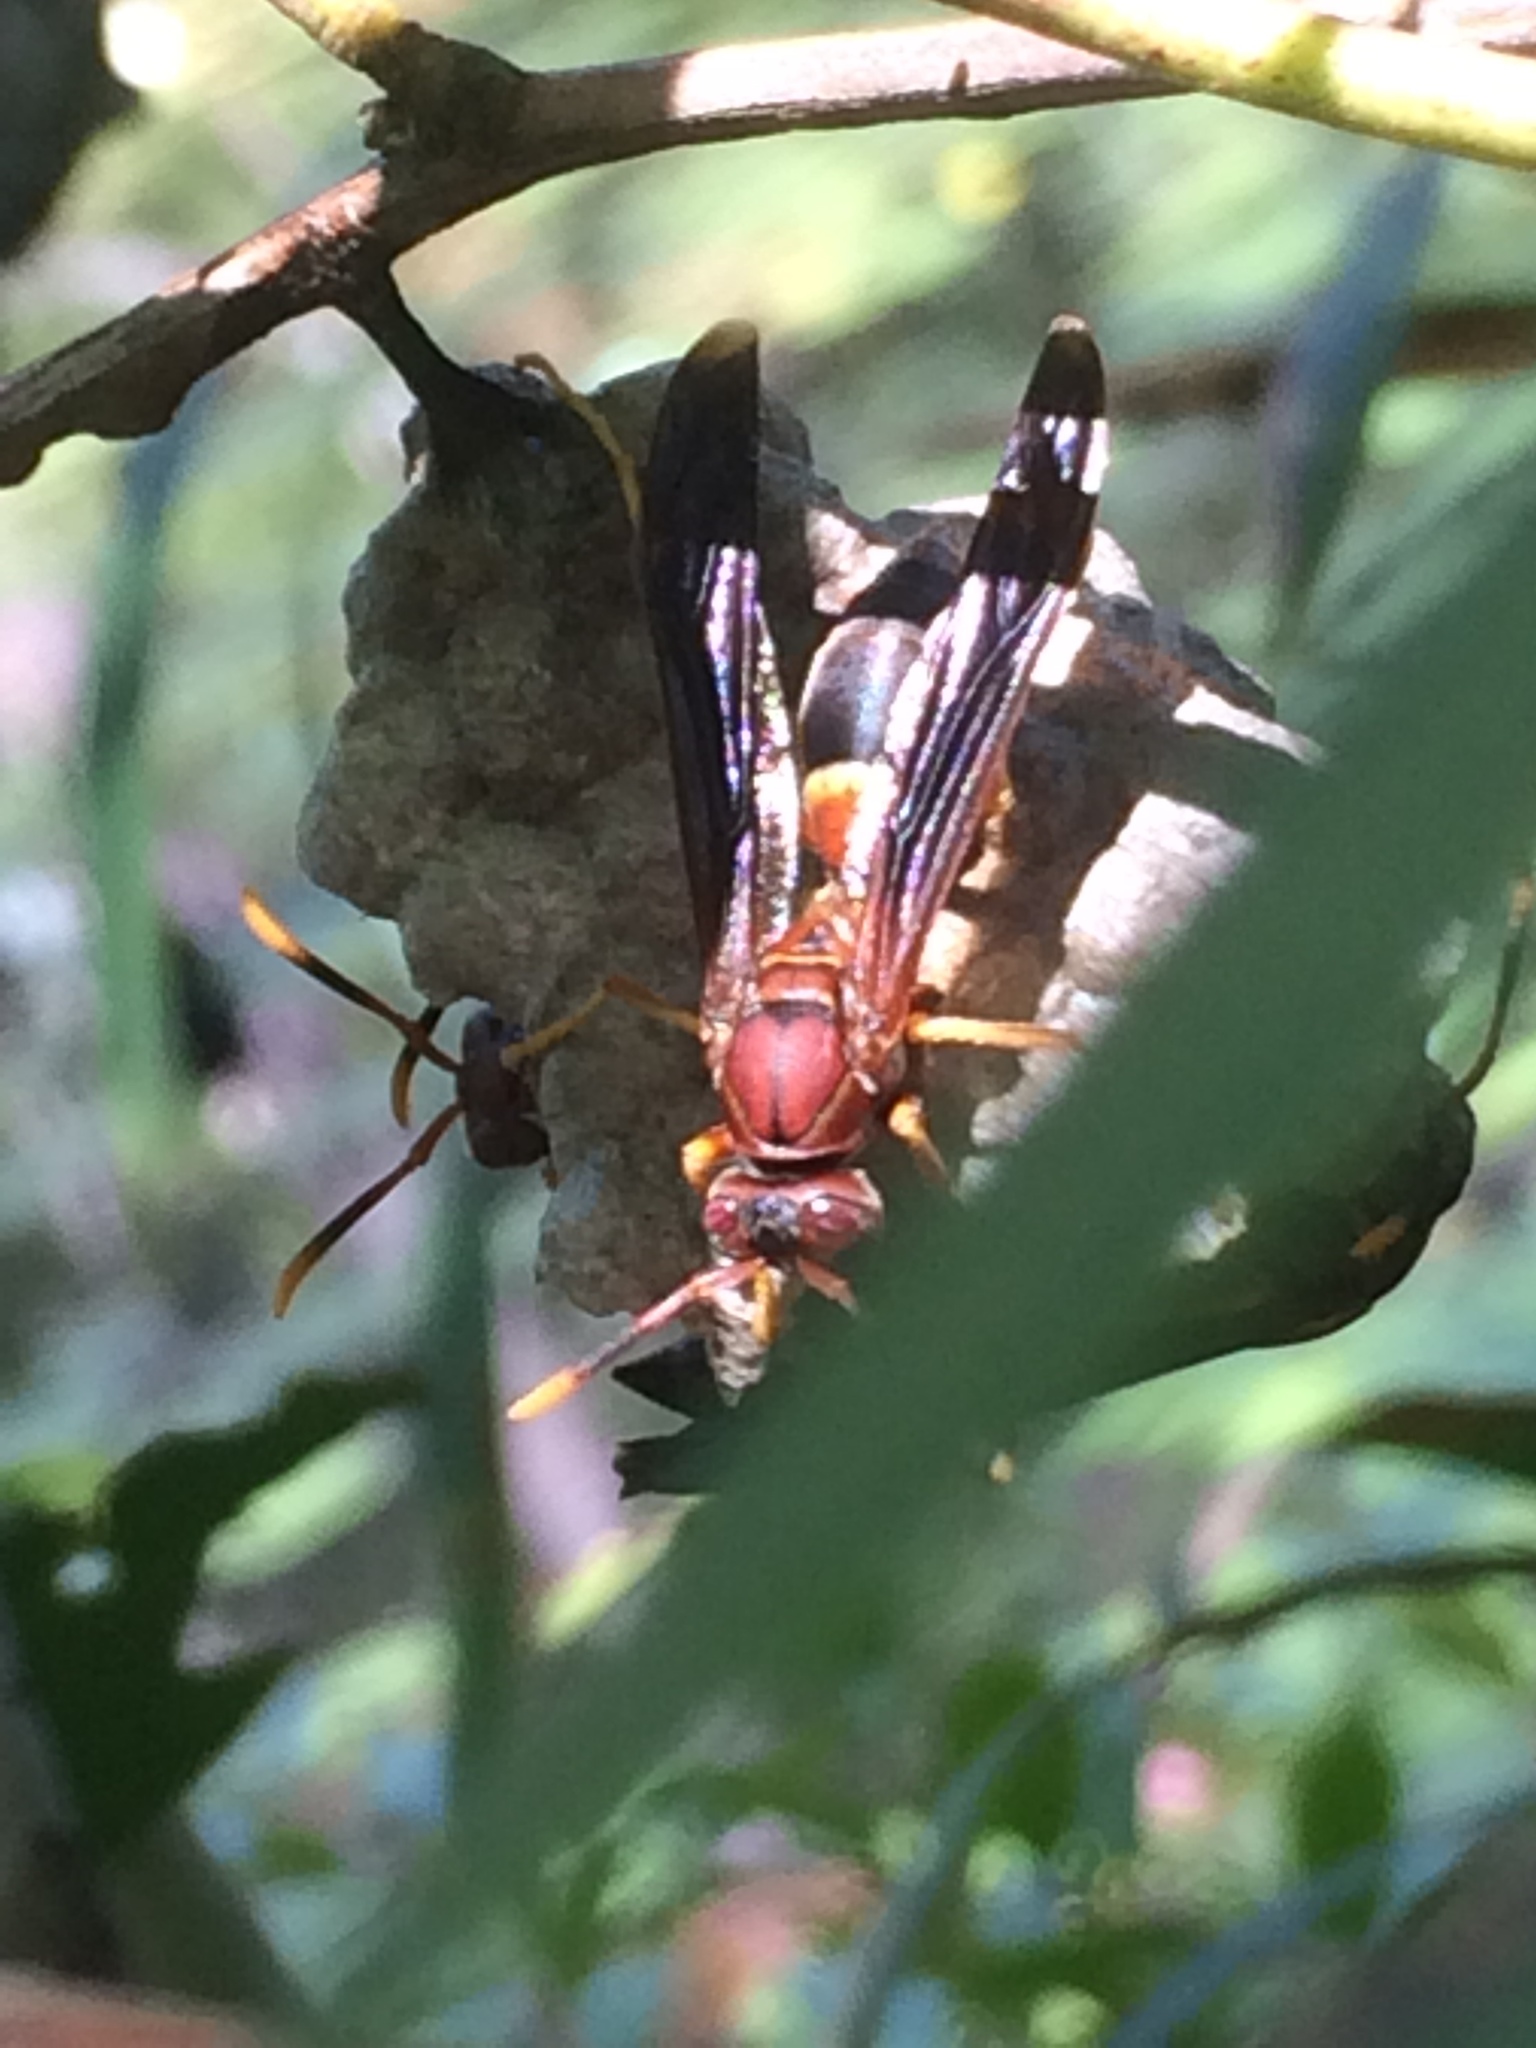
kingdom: Animalia
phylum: Arthropoda
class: Insecta
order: Hymenoptera
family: Eumenidae
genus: Polistes
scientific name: Polistes annularis
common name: Ringed paper wasp
